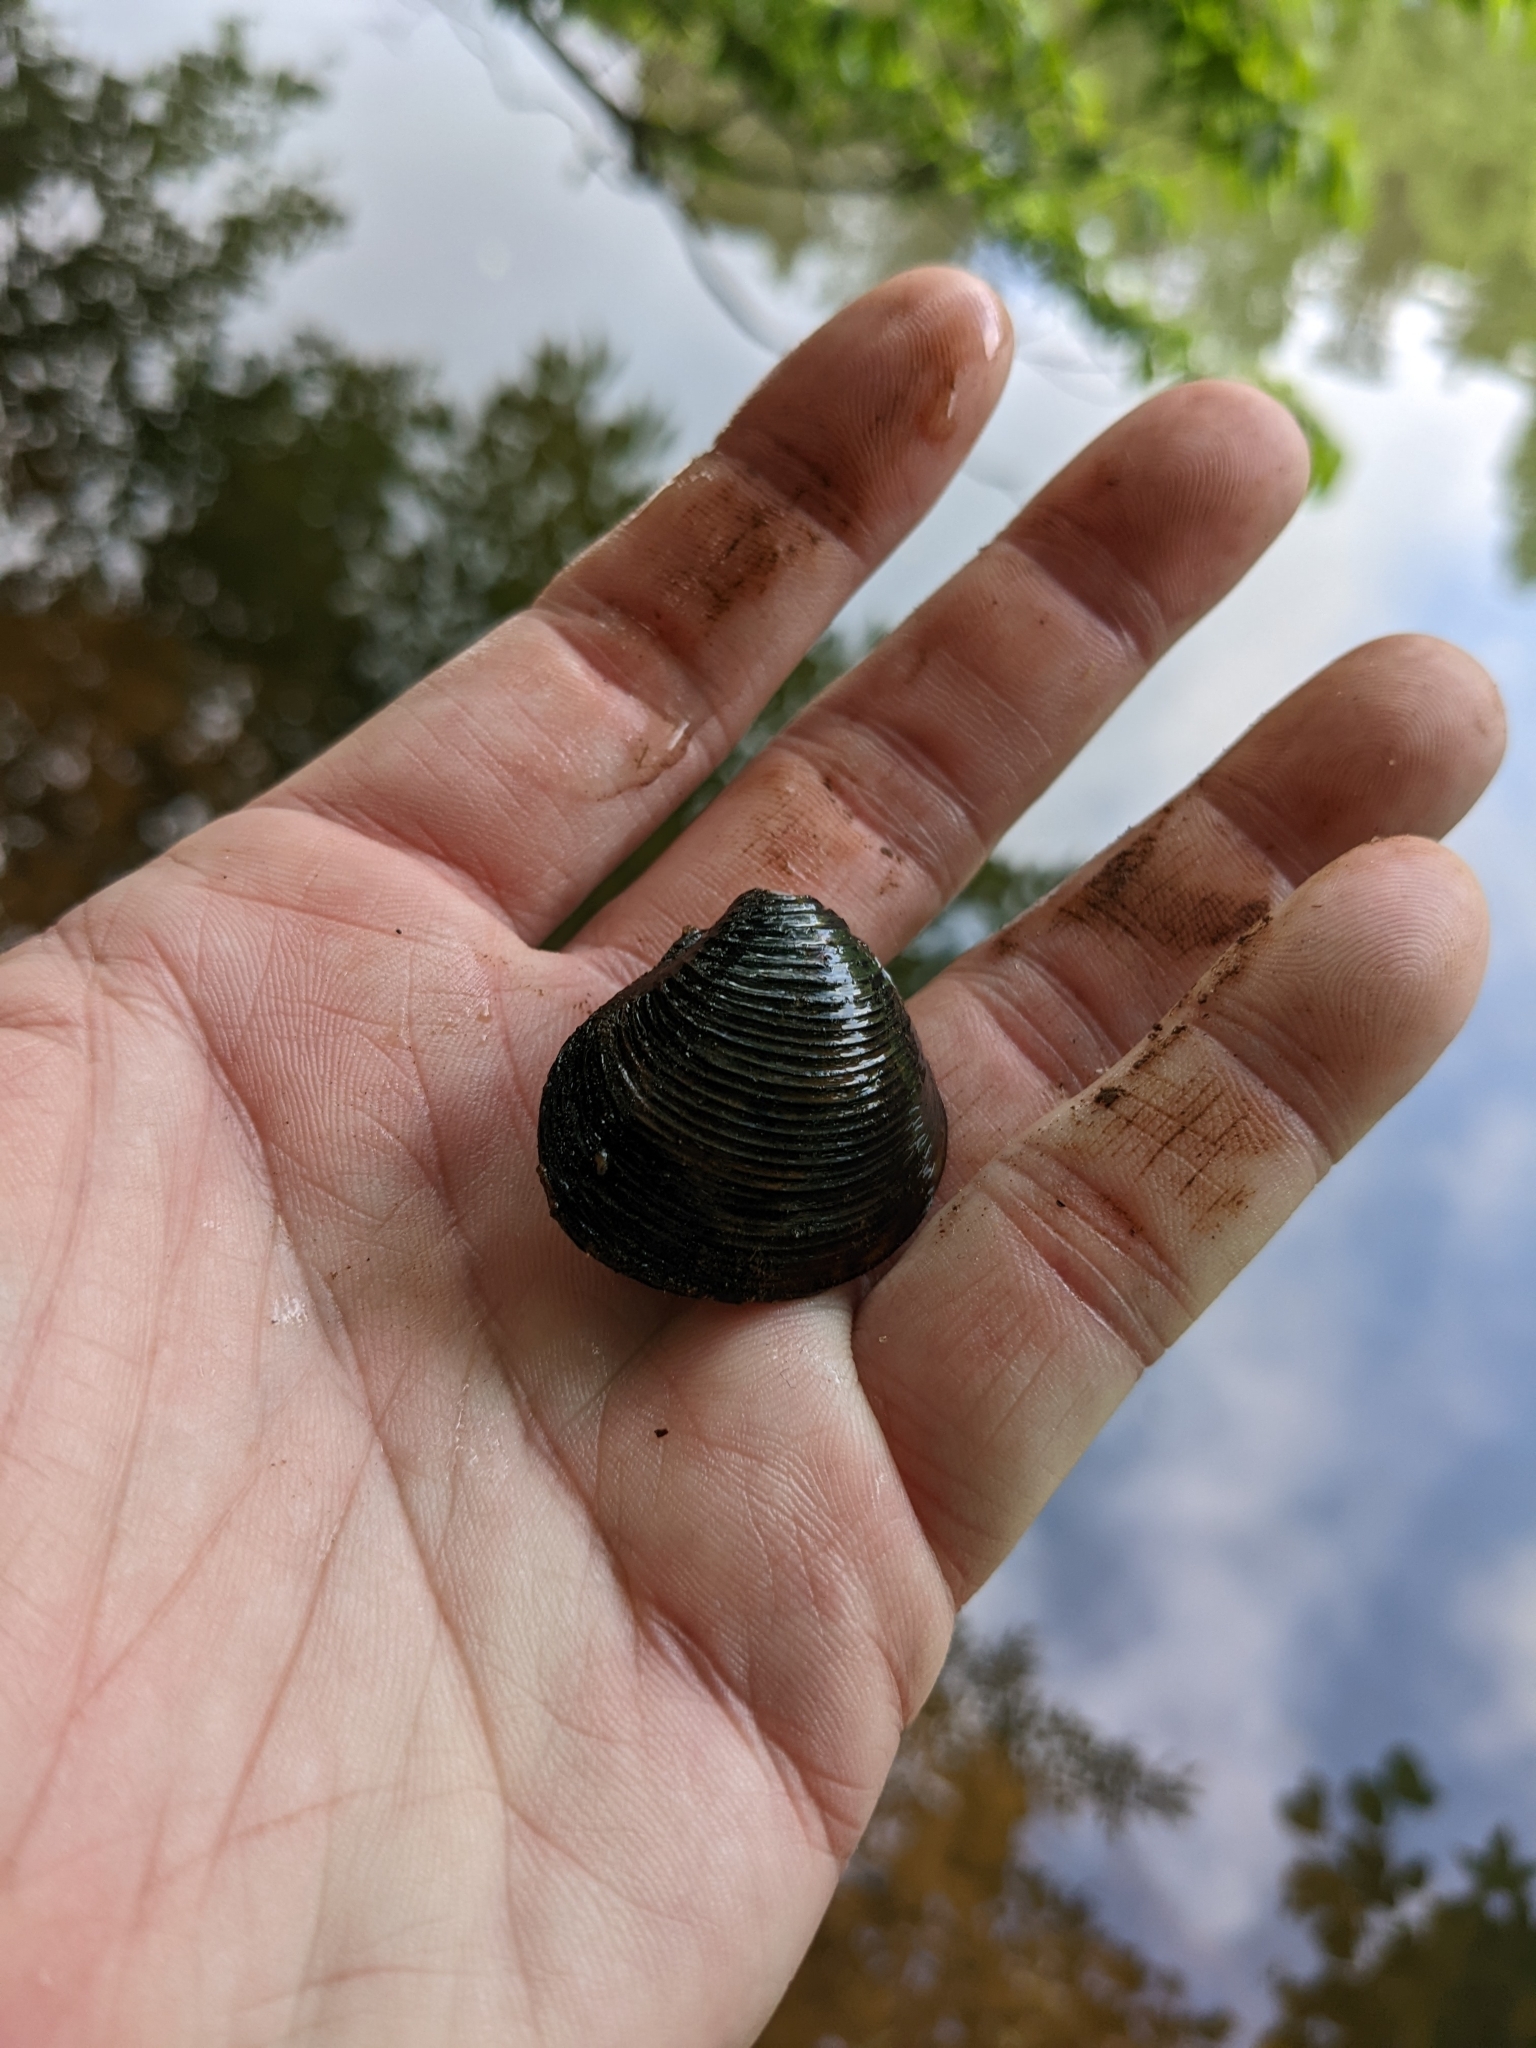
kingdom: Animalia
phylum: Mollusca
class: Bivalvia
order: Venerida
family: Cyrenidae
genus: Corbicula
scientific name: Corbicula fluminea
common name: Asian clam
